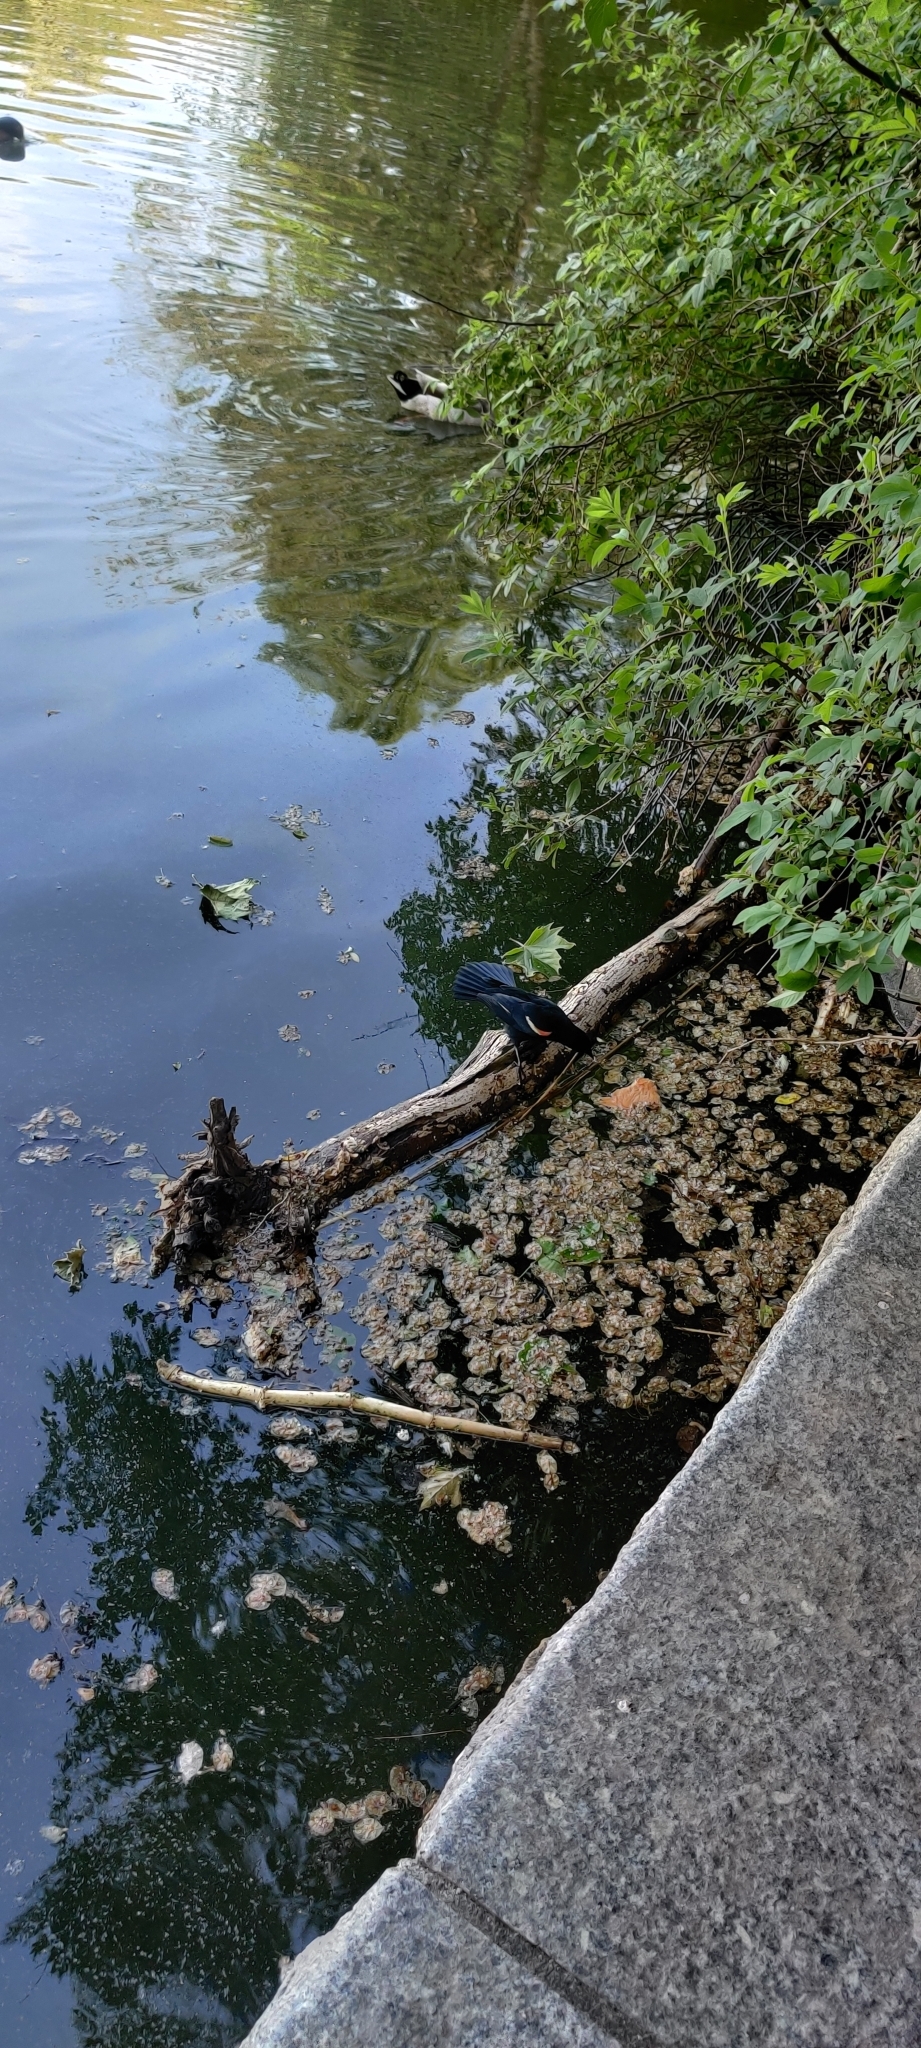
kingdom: Animalia
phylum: Chordata
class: Aves
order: Passeriformes
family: Icteridae
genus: Agelaius
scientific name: Agelaius phoeniceus
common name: Red-winged blackbird
